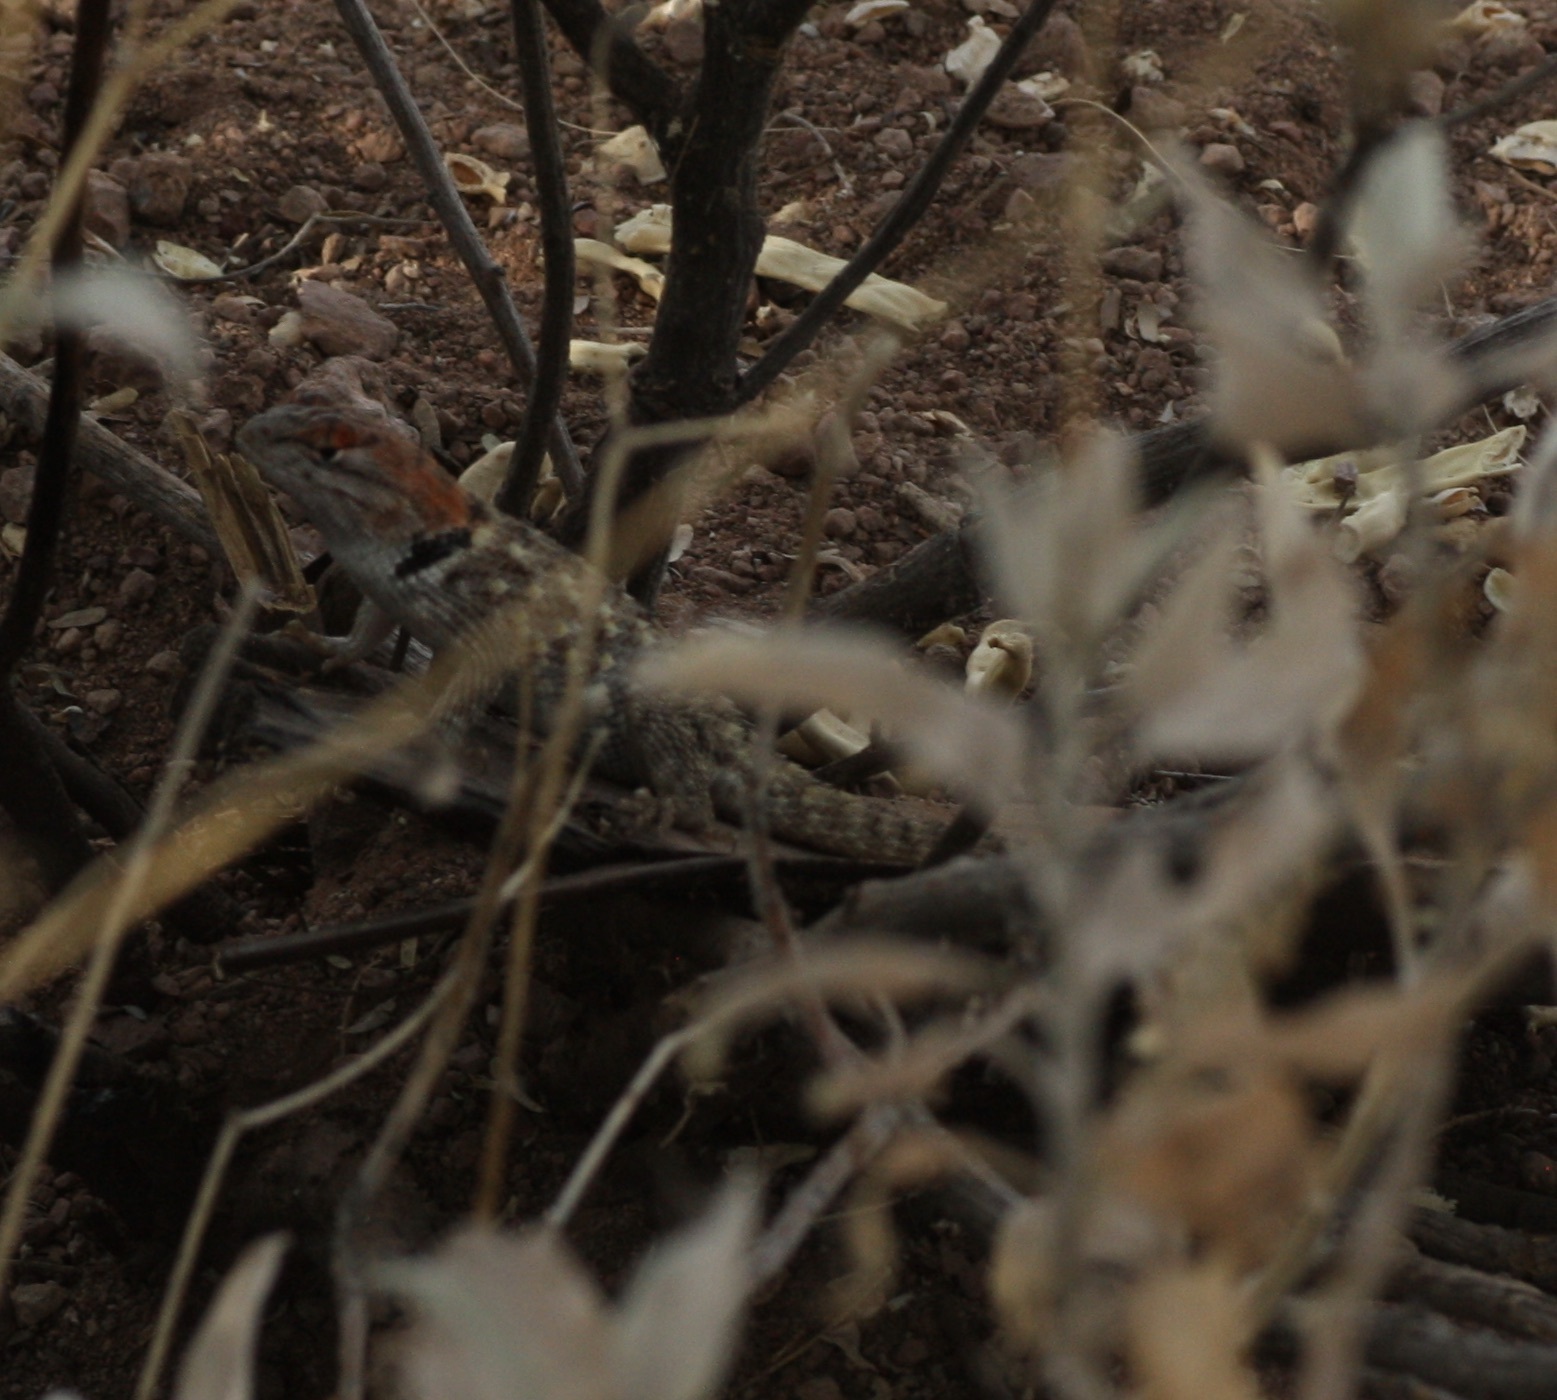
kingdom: Animalia
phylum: Chordata
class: Squamata
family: Phrynosomatidae
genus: Sceloporus
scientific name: Sceloporus magister
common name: Desert spiny lizard
